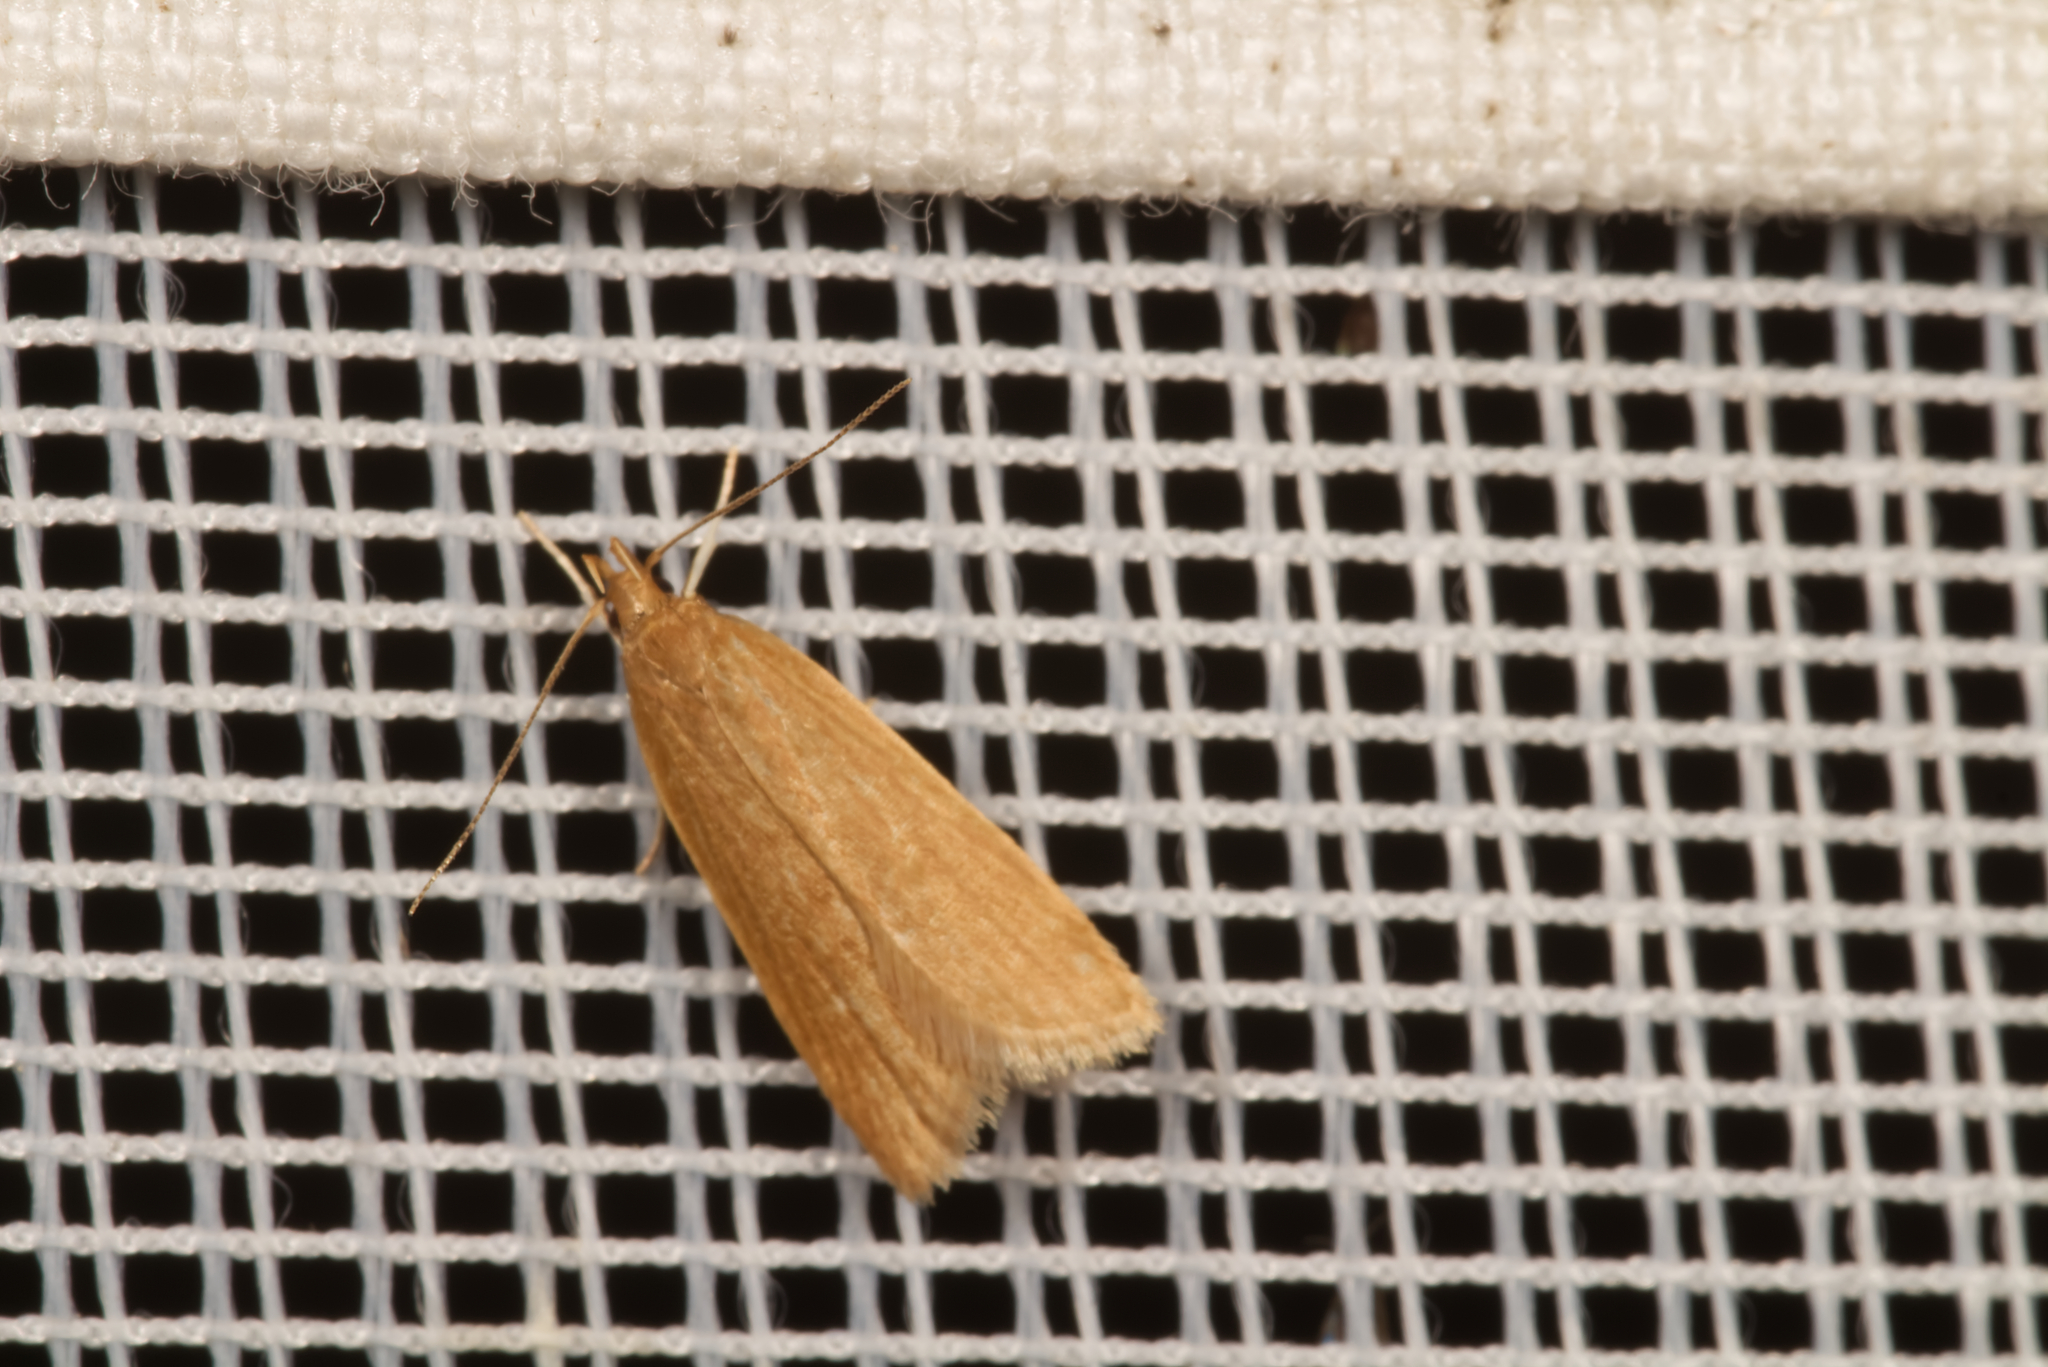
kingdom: Animalia
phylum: Arthropoda
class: Insecta
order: Lepidoptera
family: Gelechiidae
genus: Helcystogramma
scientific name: Helcystogramma rufescens
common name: Orange crest
